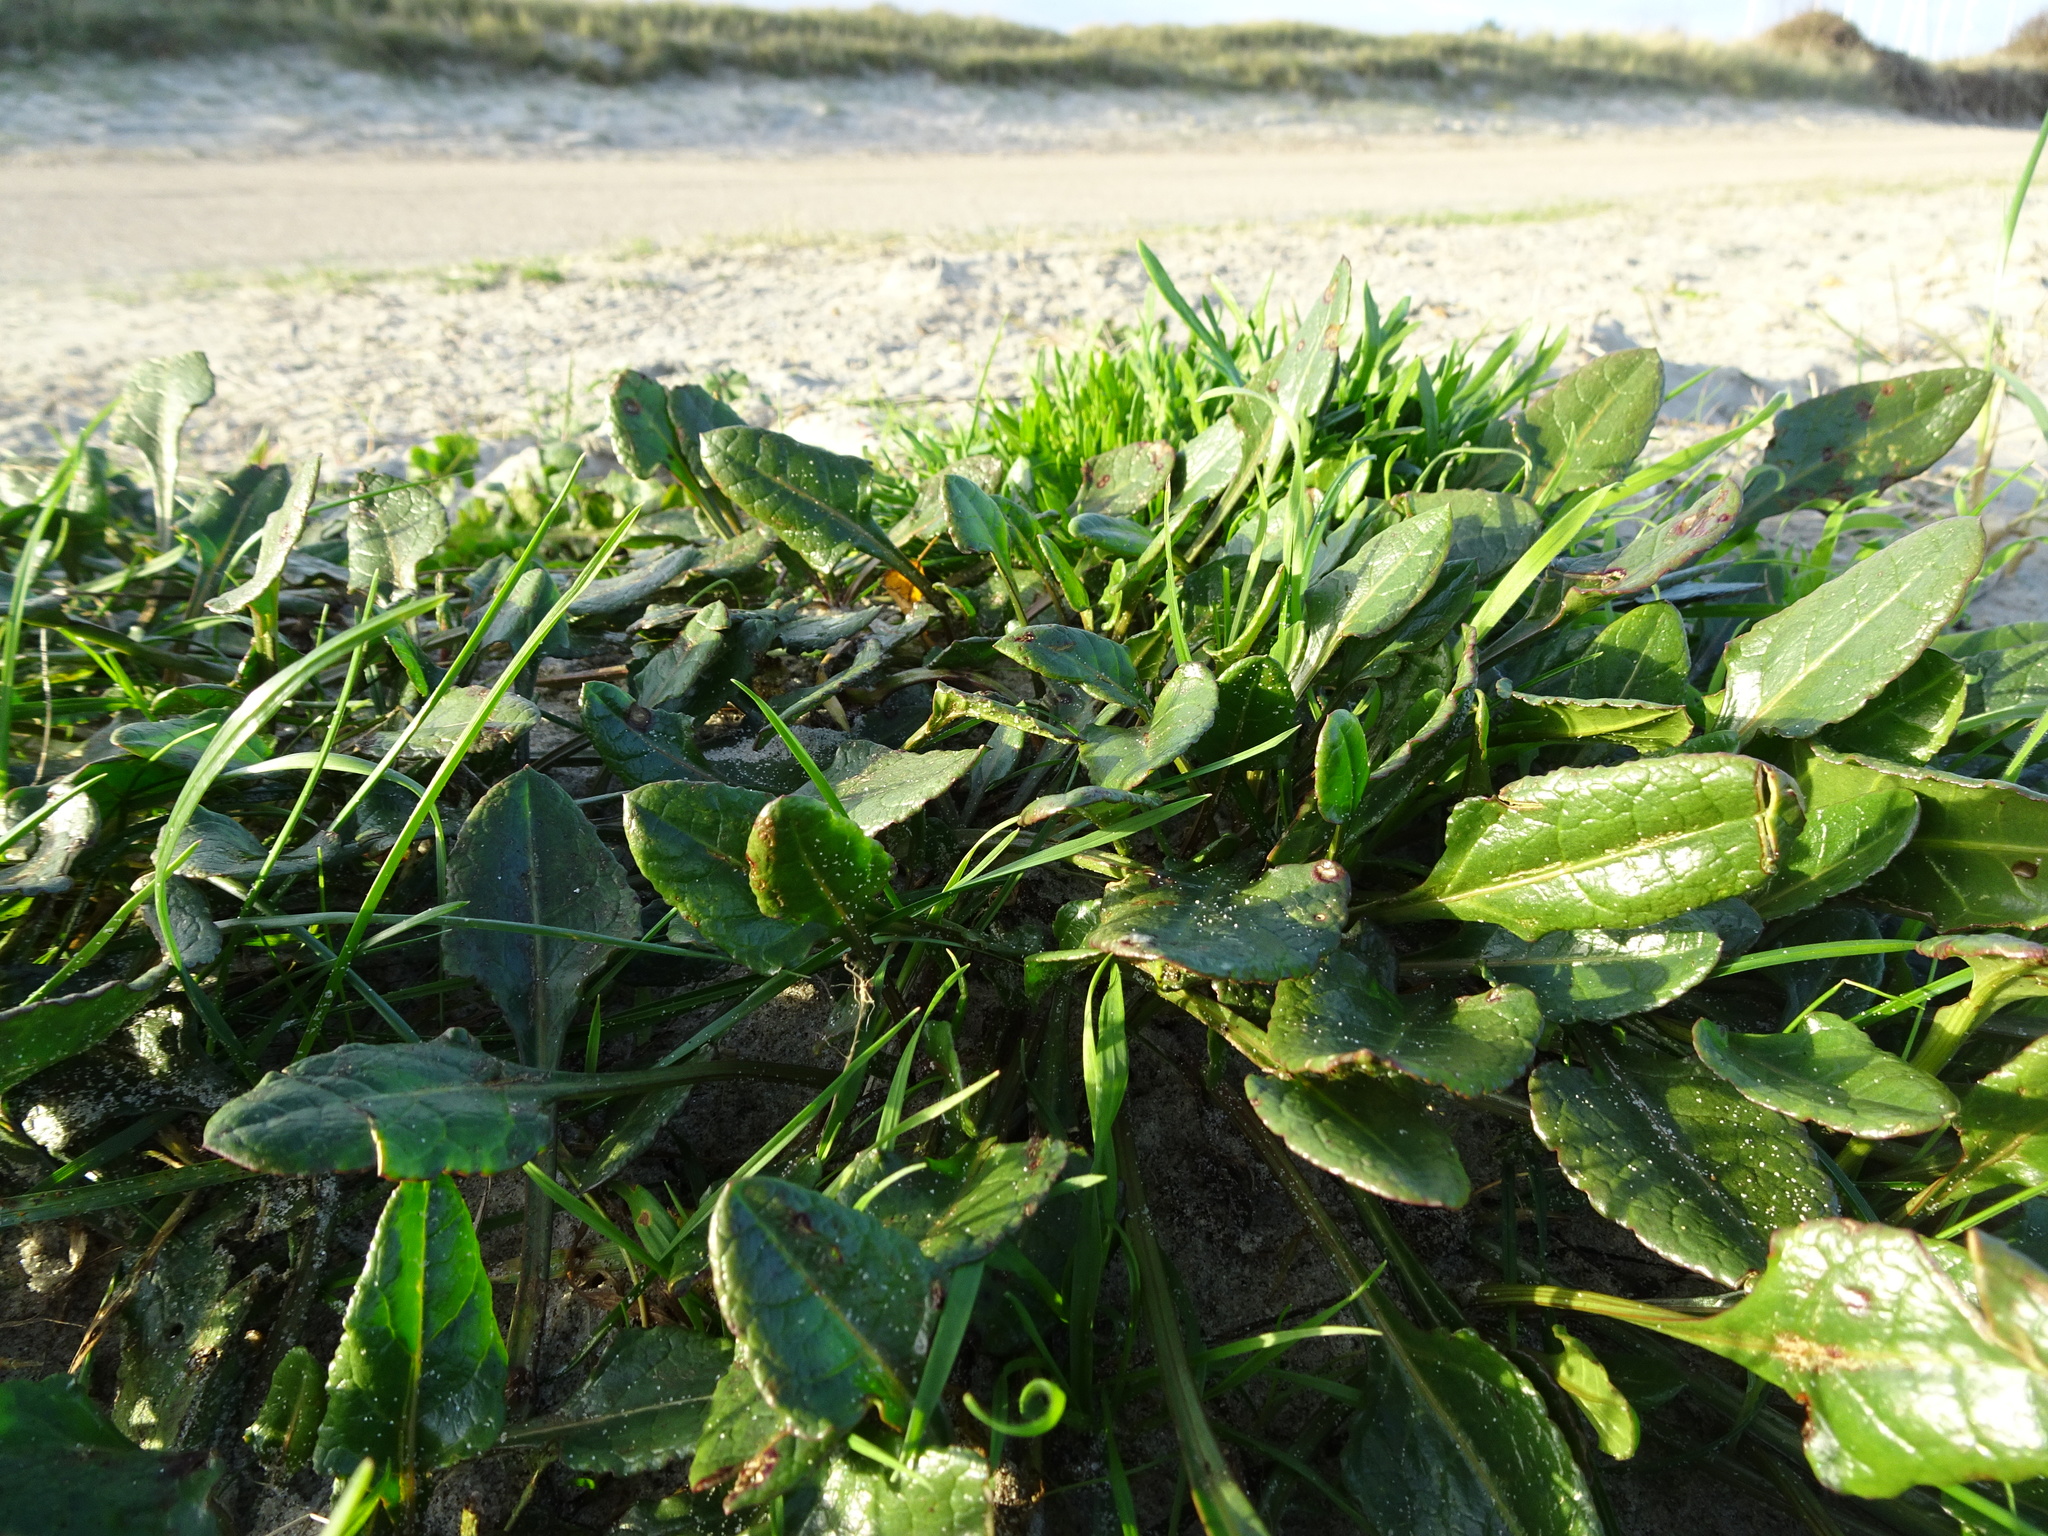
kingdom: Plantae
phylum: Tracheophyta
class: Magnoliopsida
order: Caryophyllales
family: Amaranthaceae
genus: Beta
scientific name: Beta vulgaris
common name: Beet
